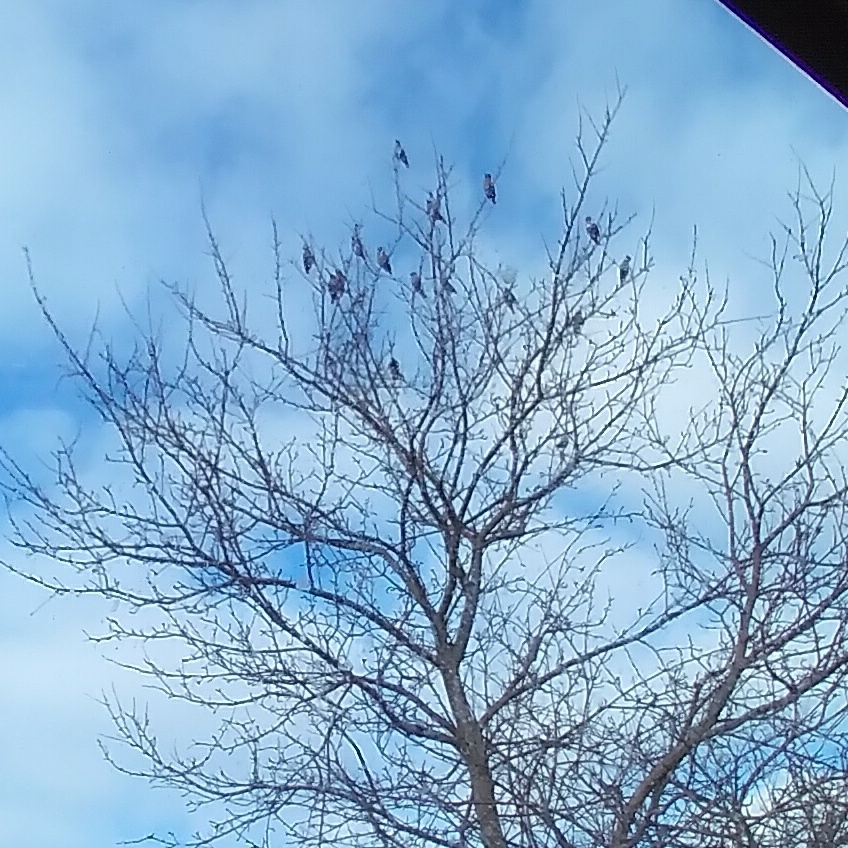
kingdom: Animalia
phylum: Chordata
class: Aves
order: Passeriformes
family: Bombycillidae
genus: Bombycilla
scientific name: Bombycilla cedrorum
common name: Cedar waxwing
